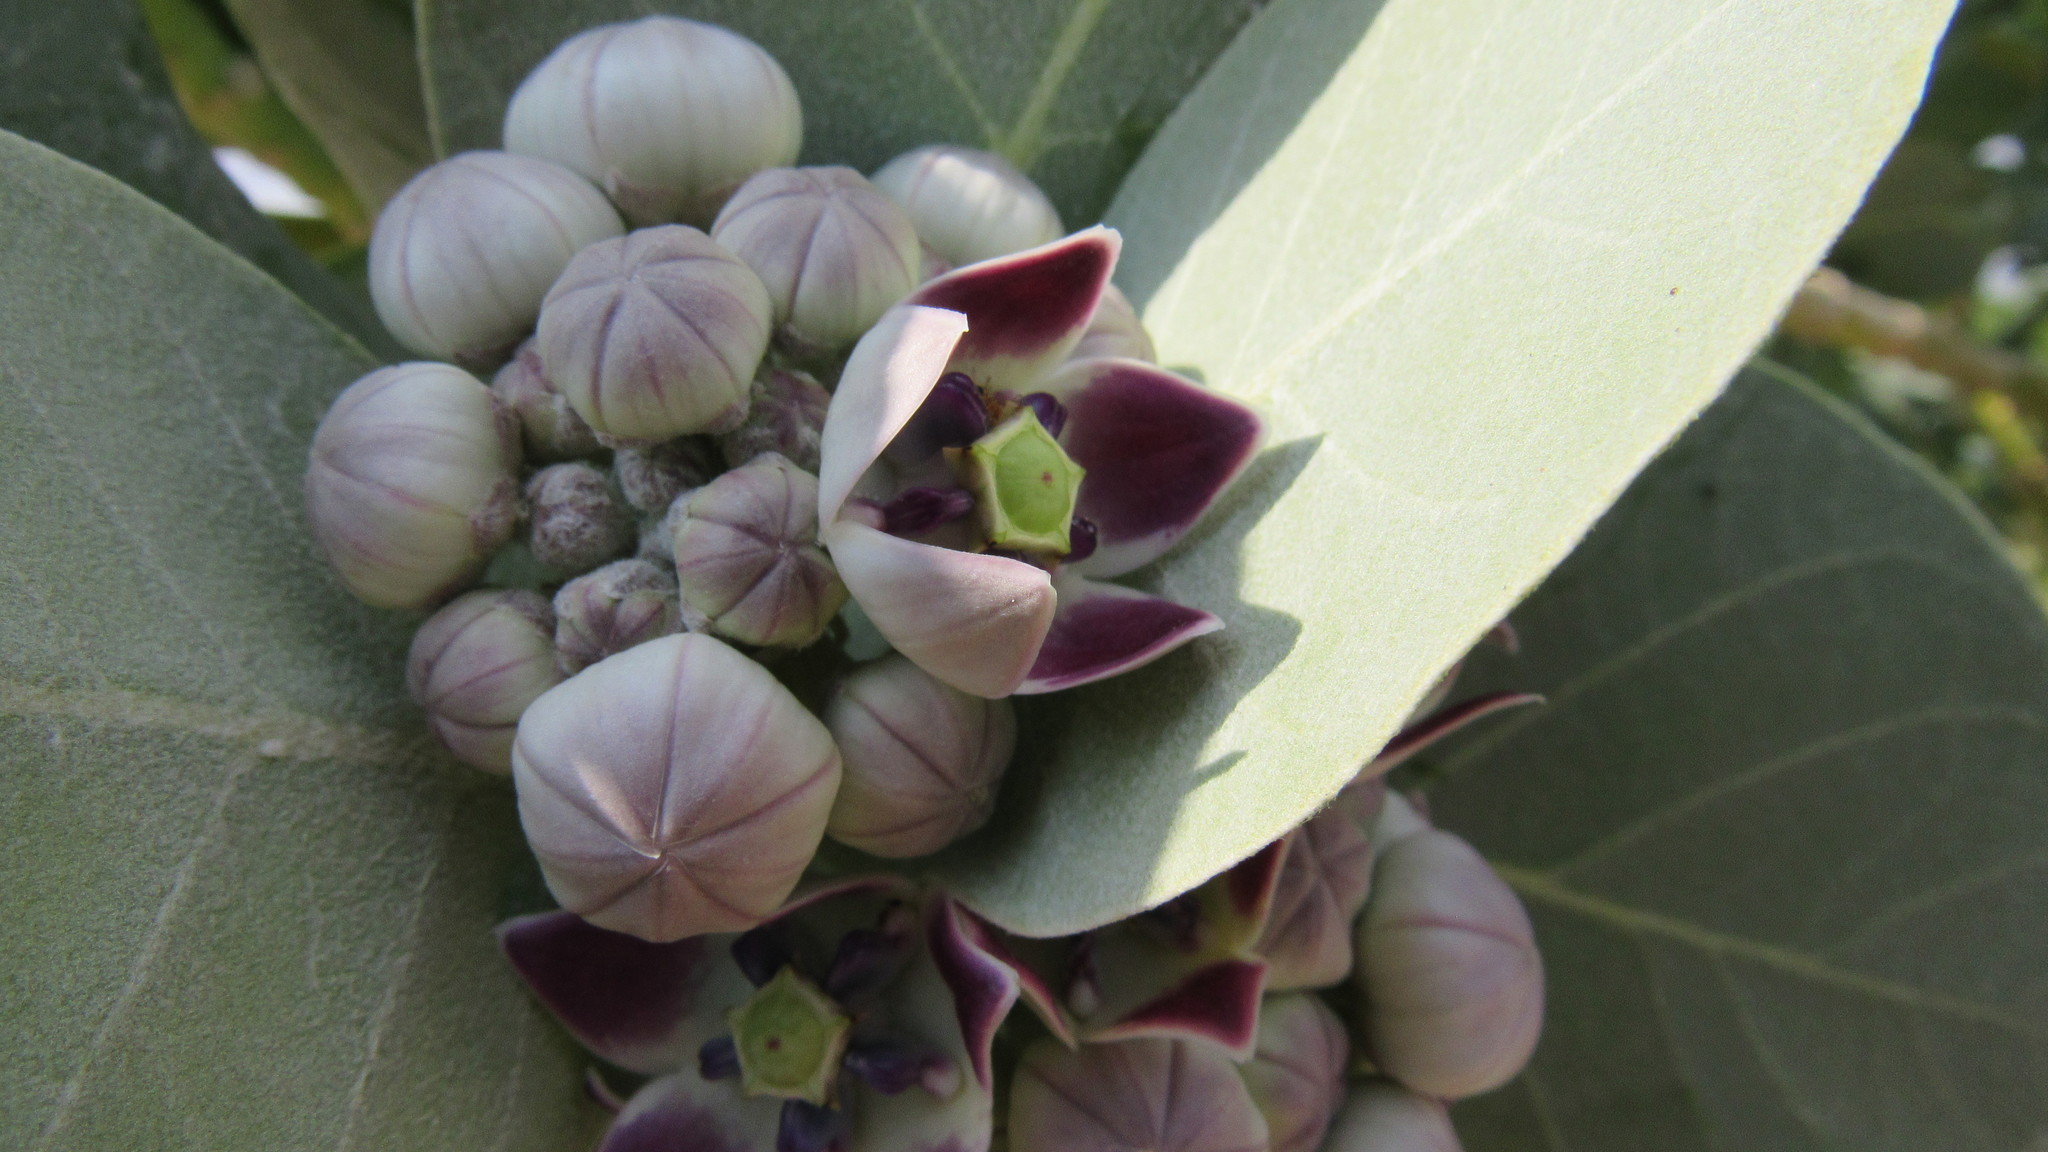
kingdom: Plantae
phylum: Tracheophyta
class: Magnoliopsida
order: Gentianales
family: Apocynaceae
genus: Calotropis
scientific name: Calotropis procera
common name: Roostertree
